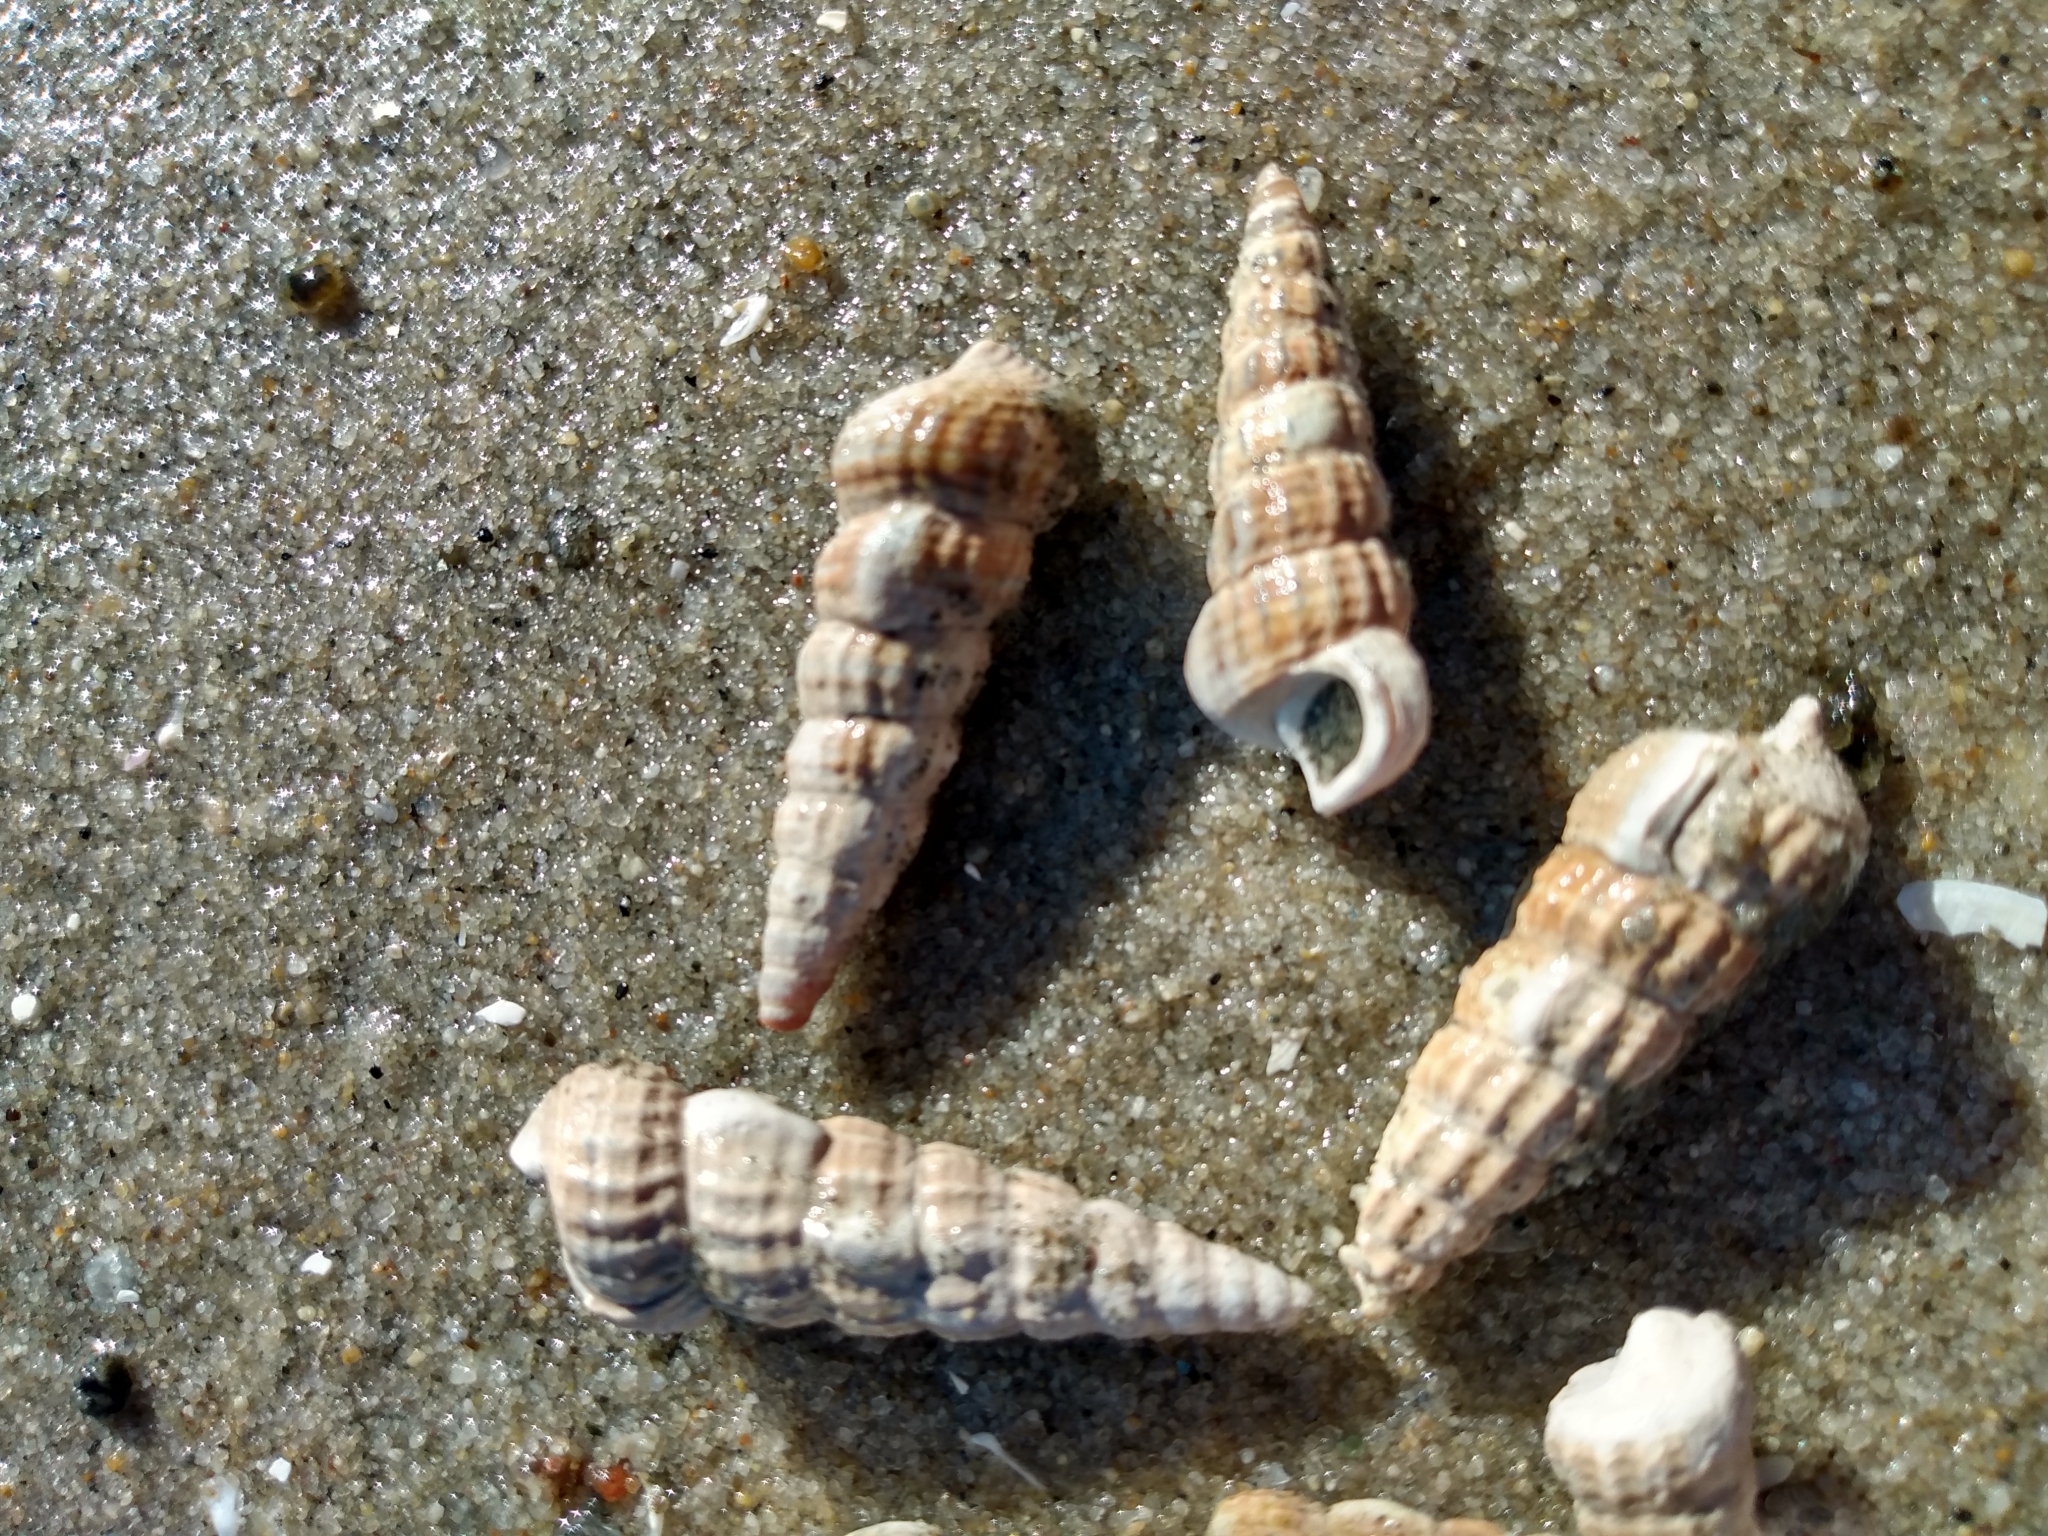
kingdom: Animalia
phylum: Mollusca
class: Gastropoda
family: Potamididae
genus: Cerithideopsis
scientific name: Cerithideopsis californica
